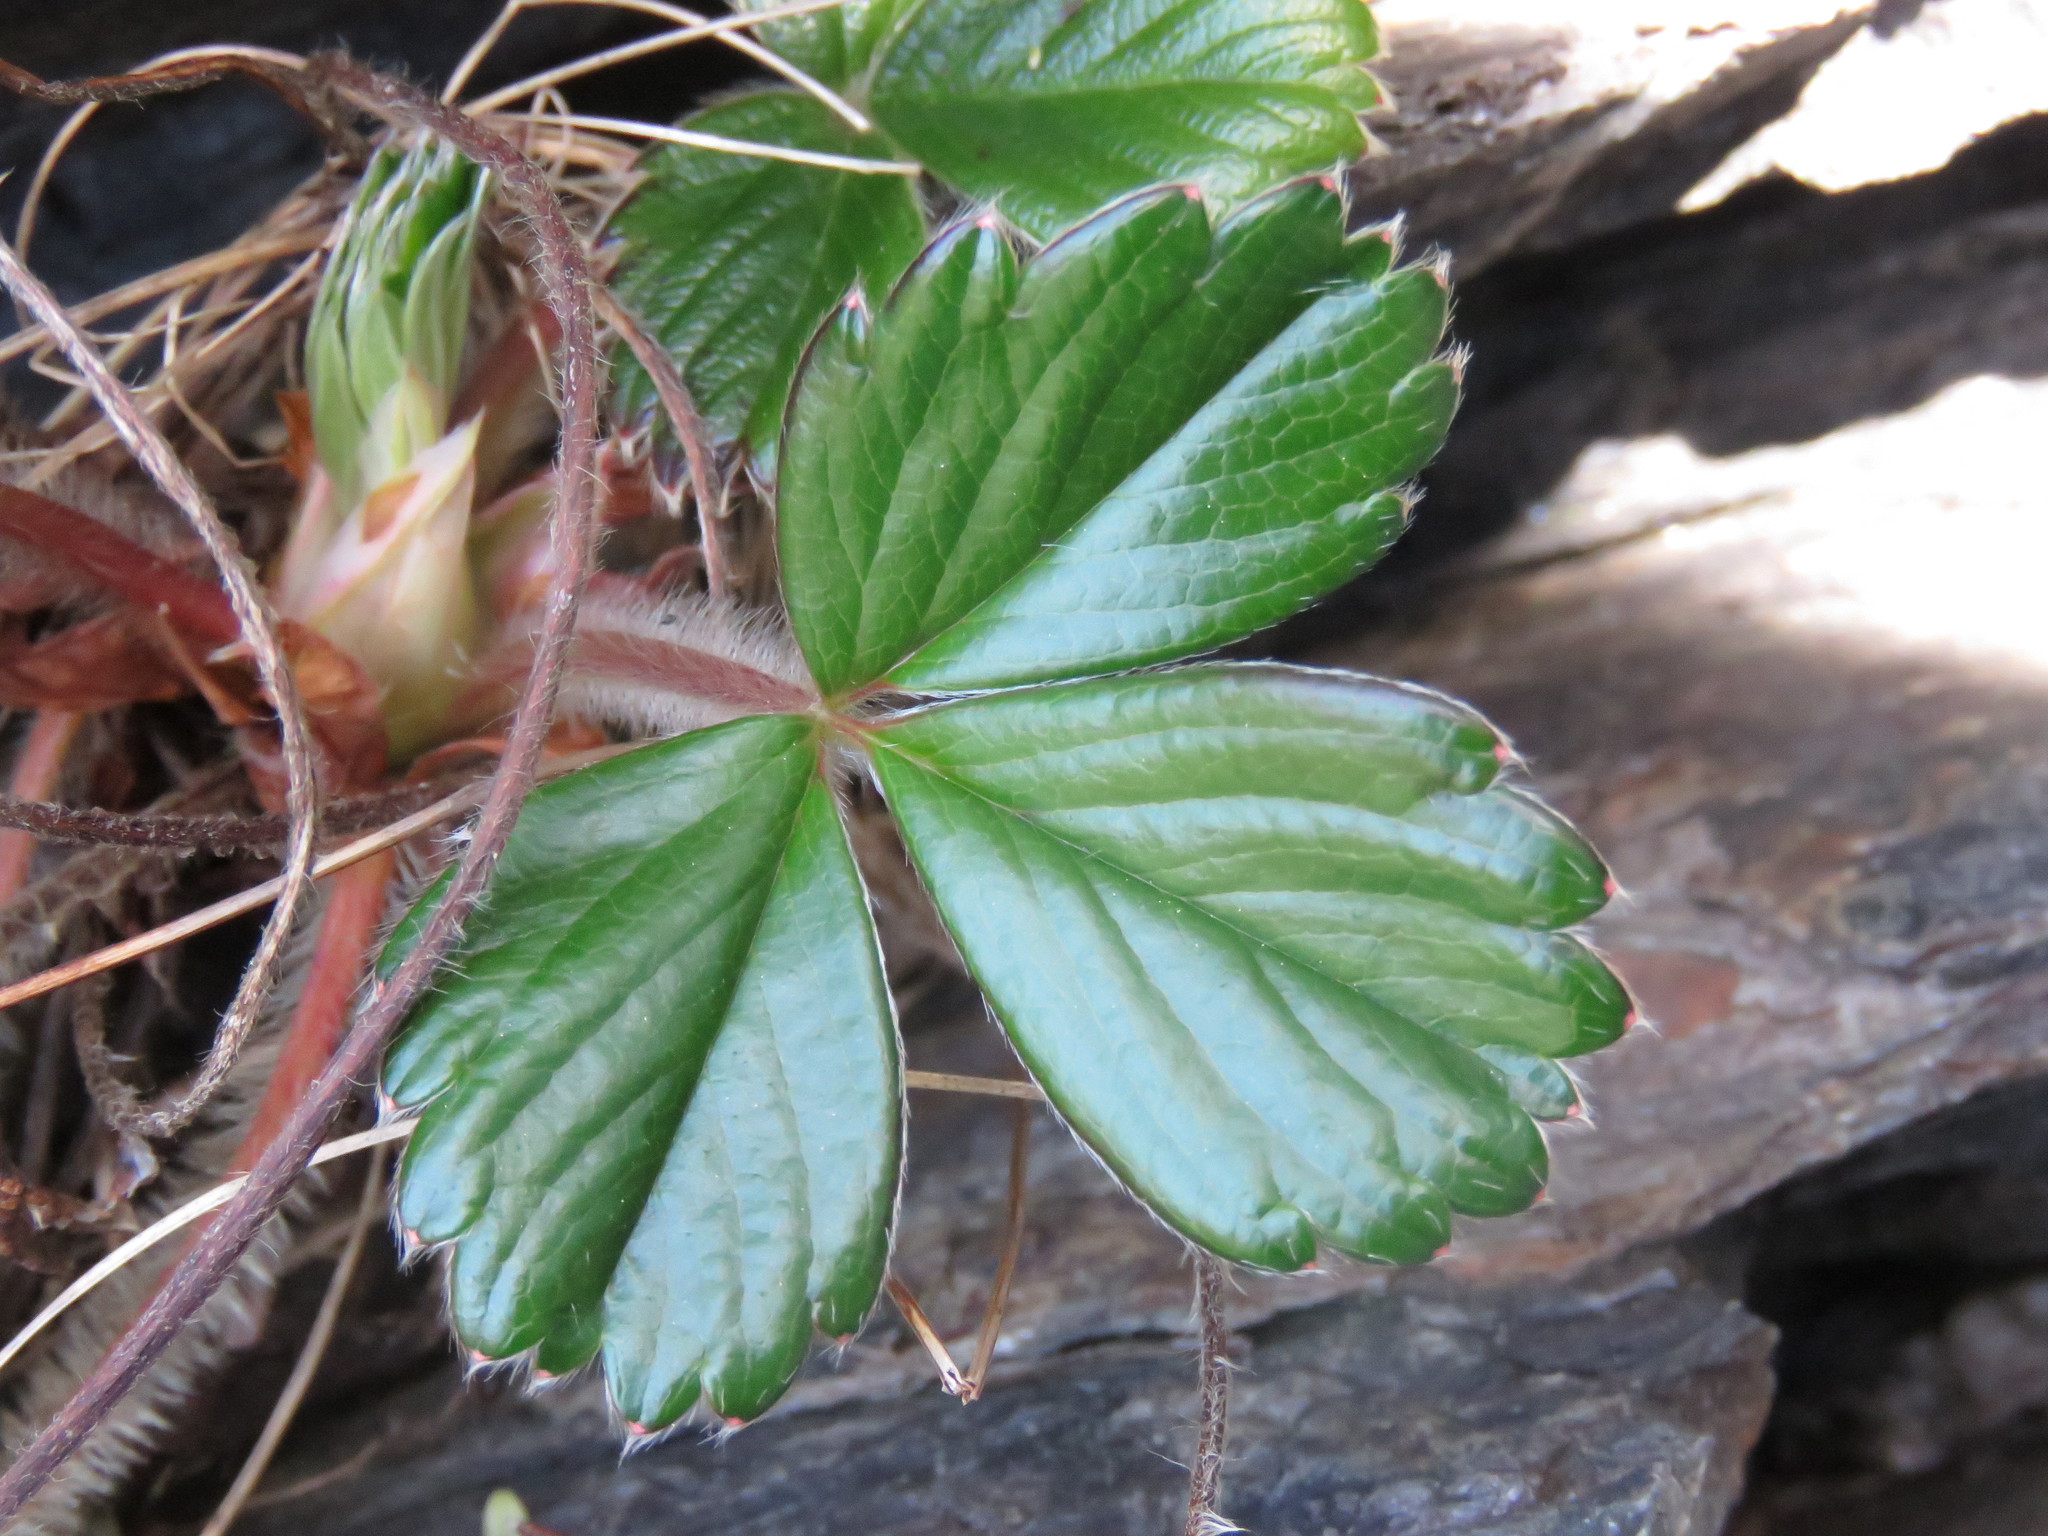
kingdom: Plantae
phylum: Tracheophyta
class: Magnoliopsida
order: Rosales
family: Rosaceae
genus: Fragaria
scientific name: Fragaria chiloensis
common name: Beach strawberry
